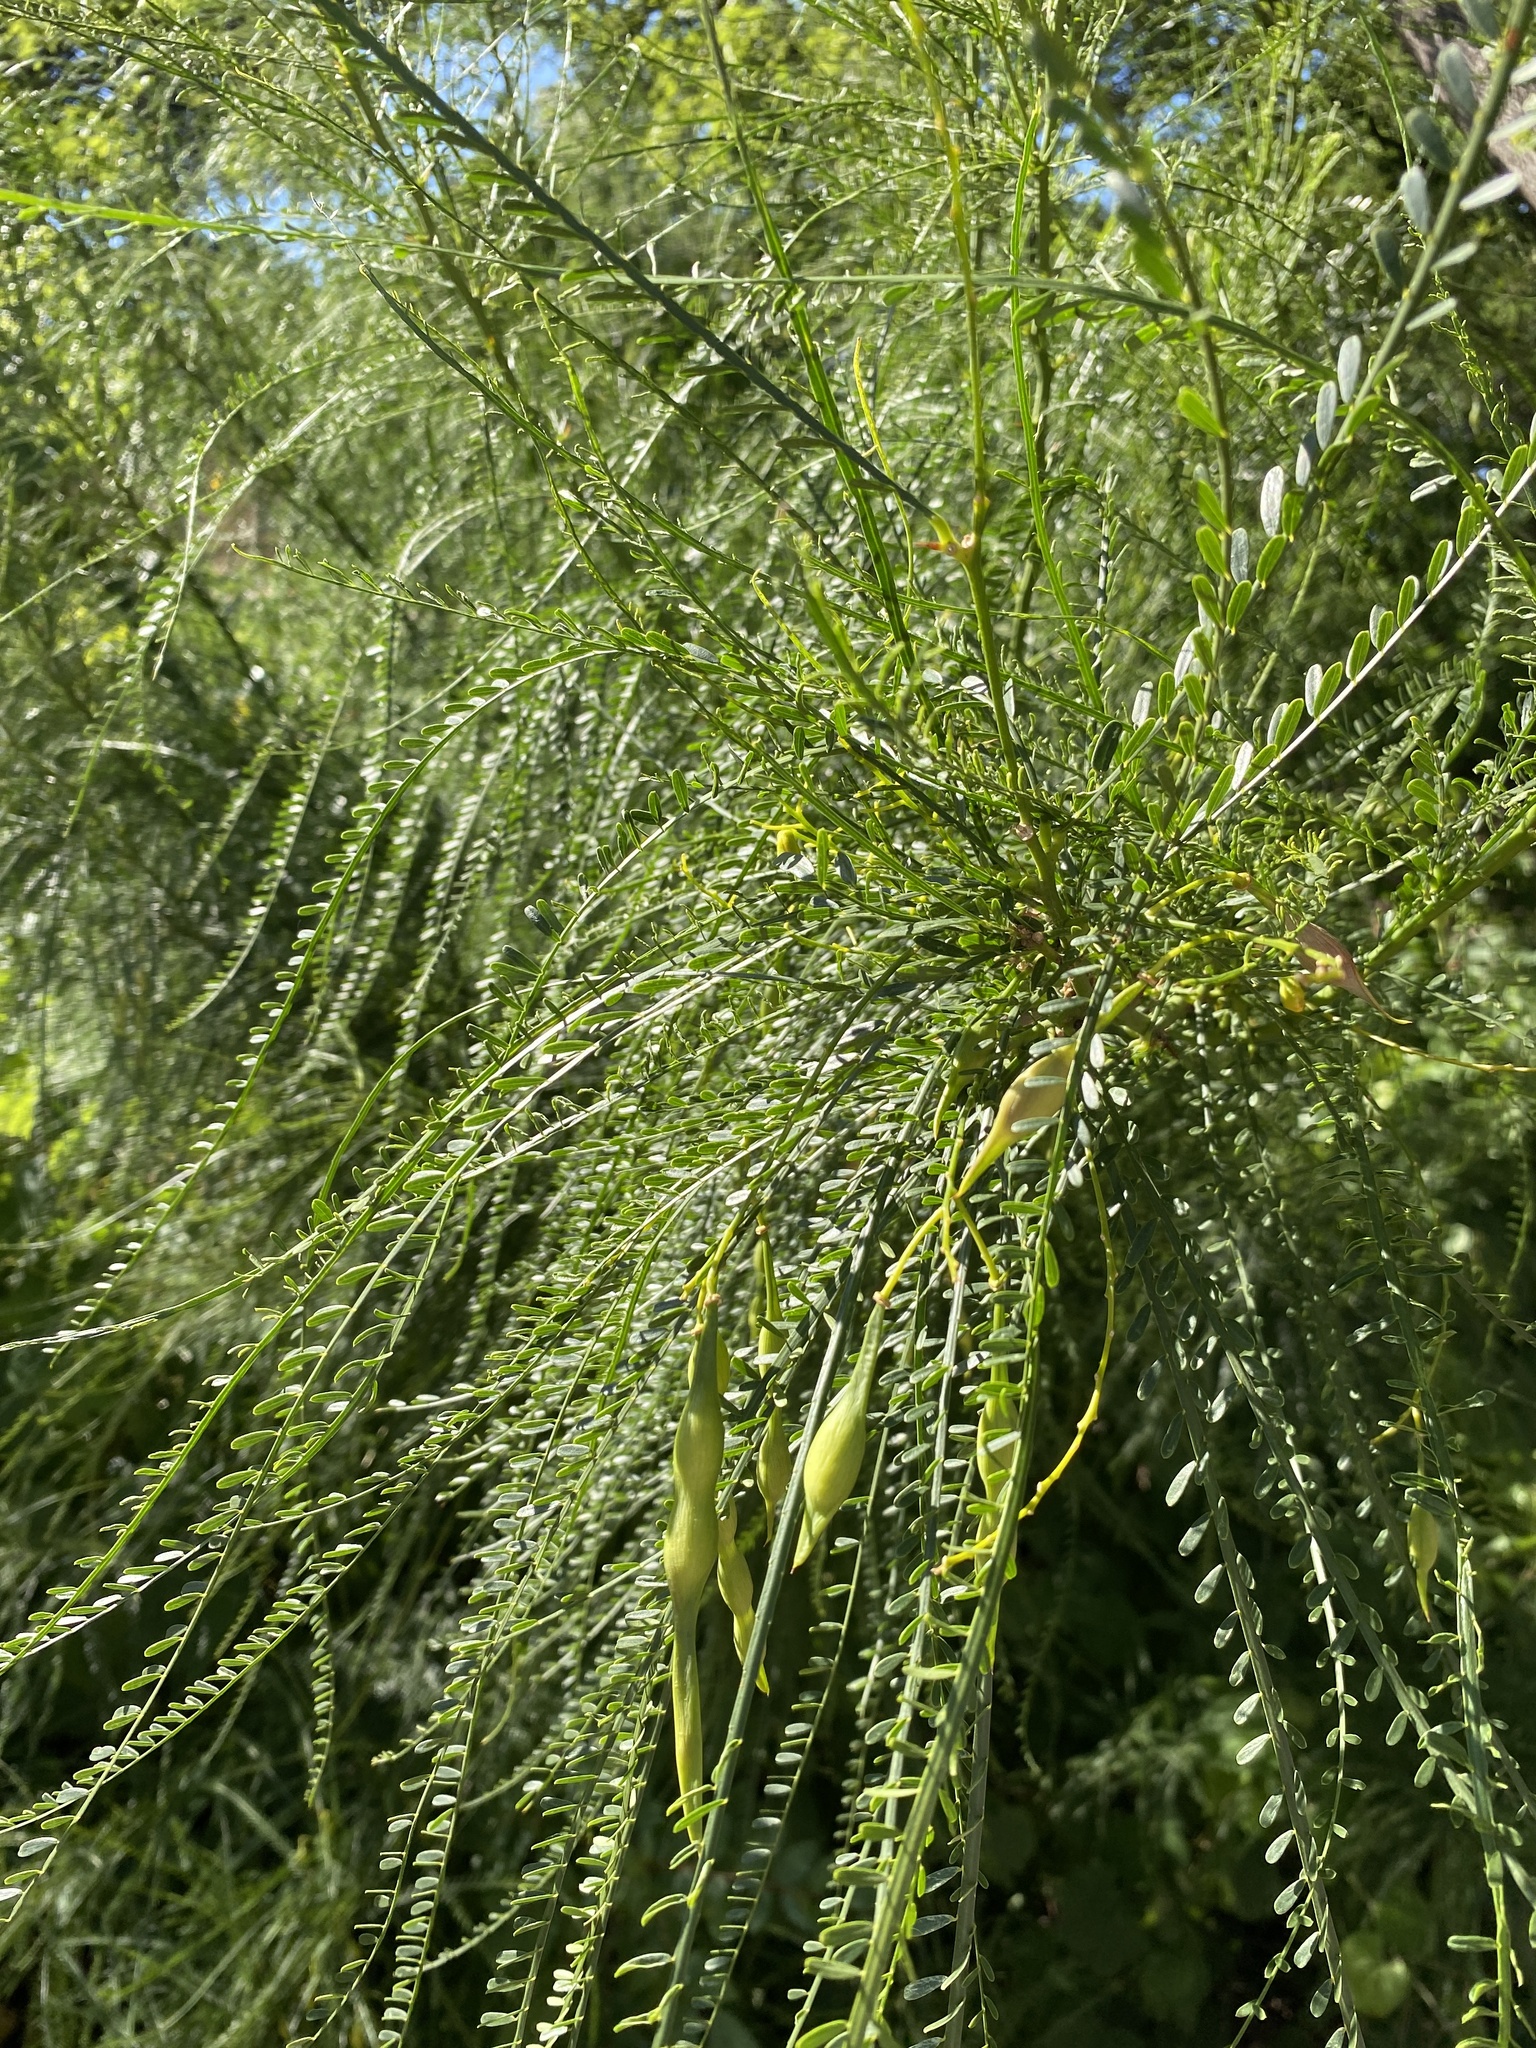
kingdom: Plantae
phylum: Tracheophyta
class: Magnoliopsida
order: Fabales
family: Fabaceae
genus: Parkinsonia
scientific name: Parkinsonia aculeata
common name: Jerusalem thorn
